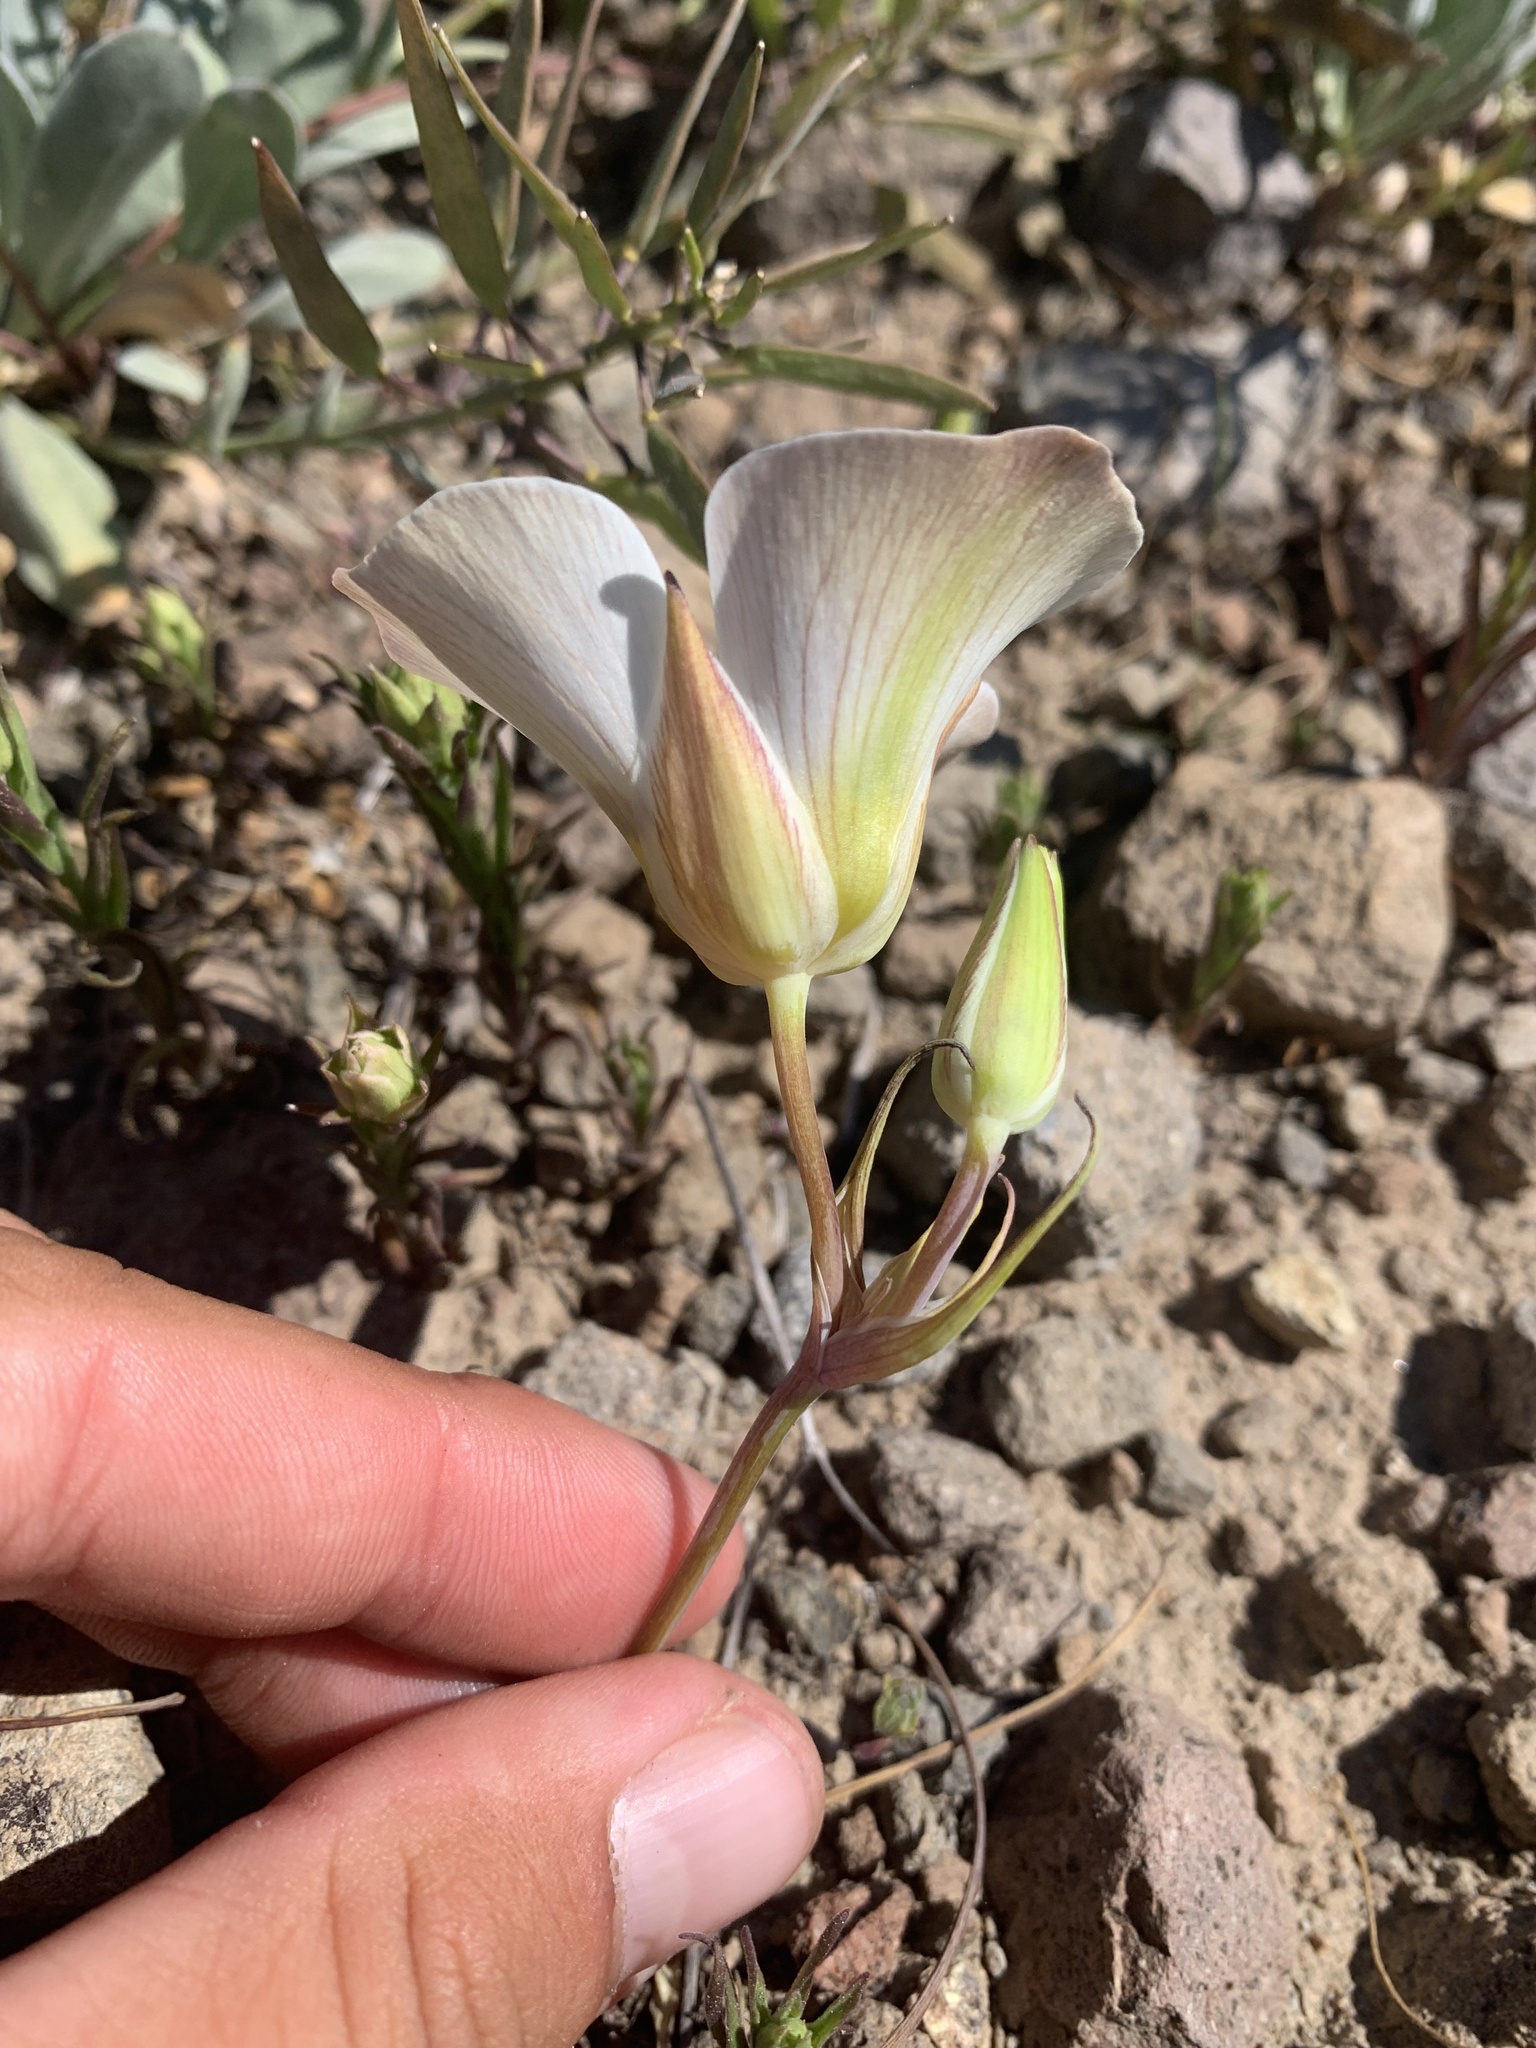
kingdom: Plantae
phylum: Tracheophyta
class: Liliopsida
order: Liliales
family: Liliaceae
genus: Calochortus
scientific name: Calochortus leichtlinii
